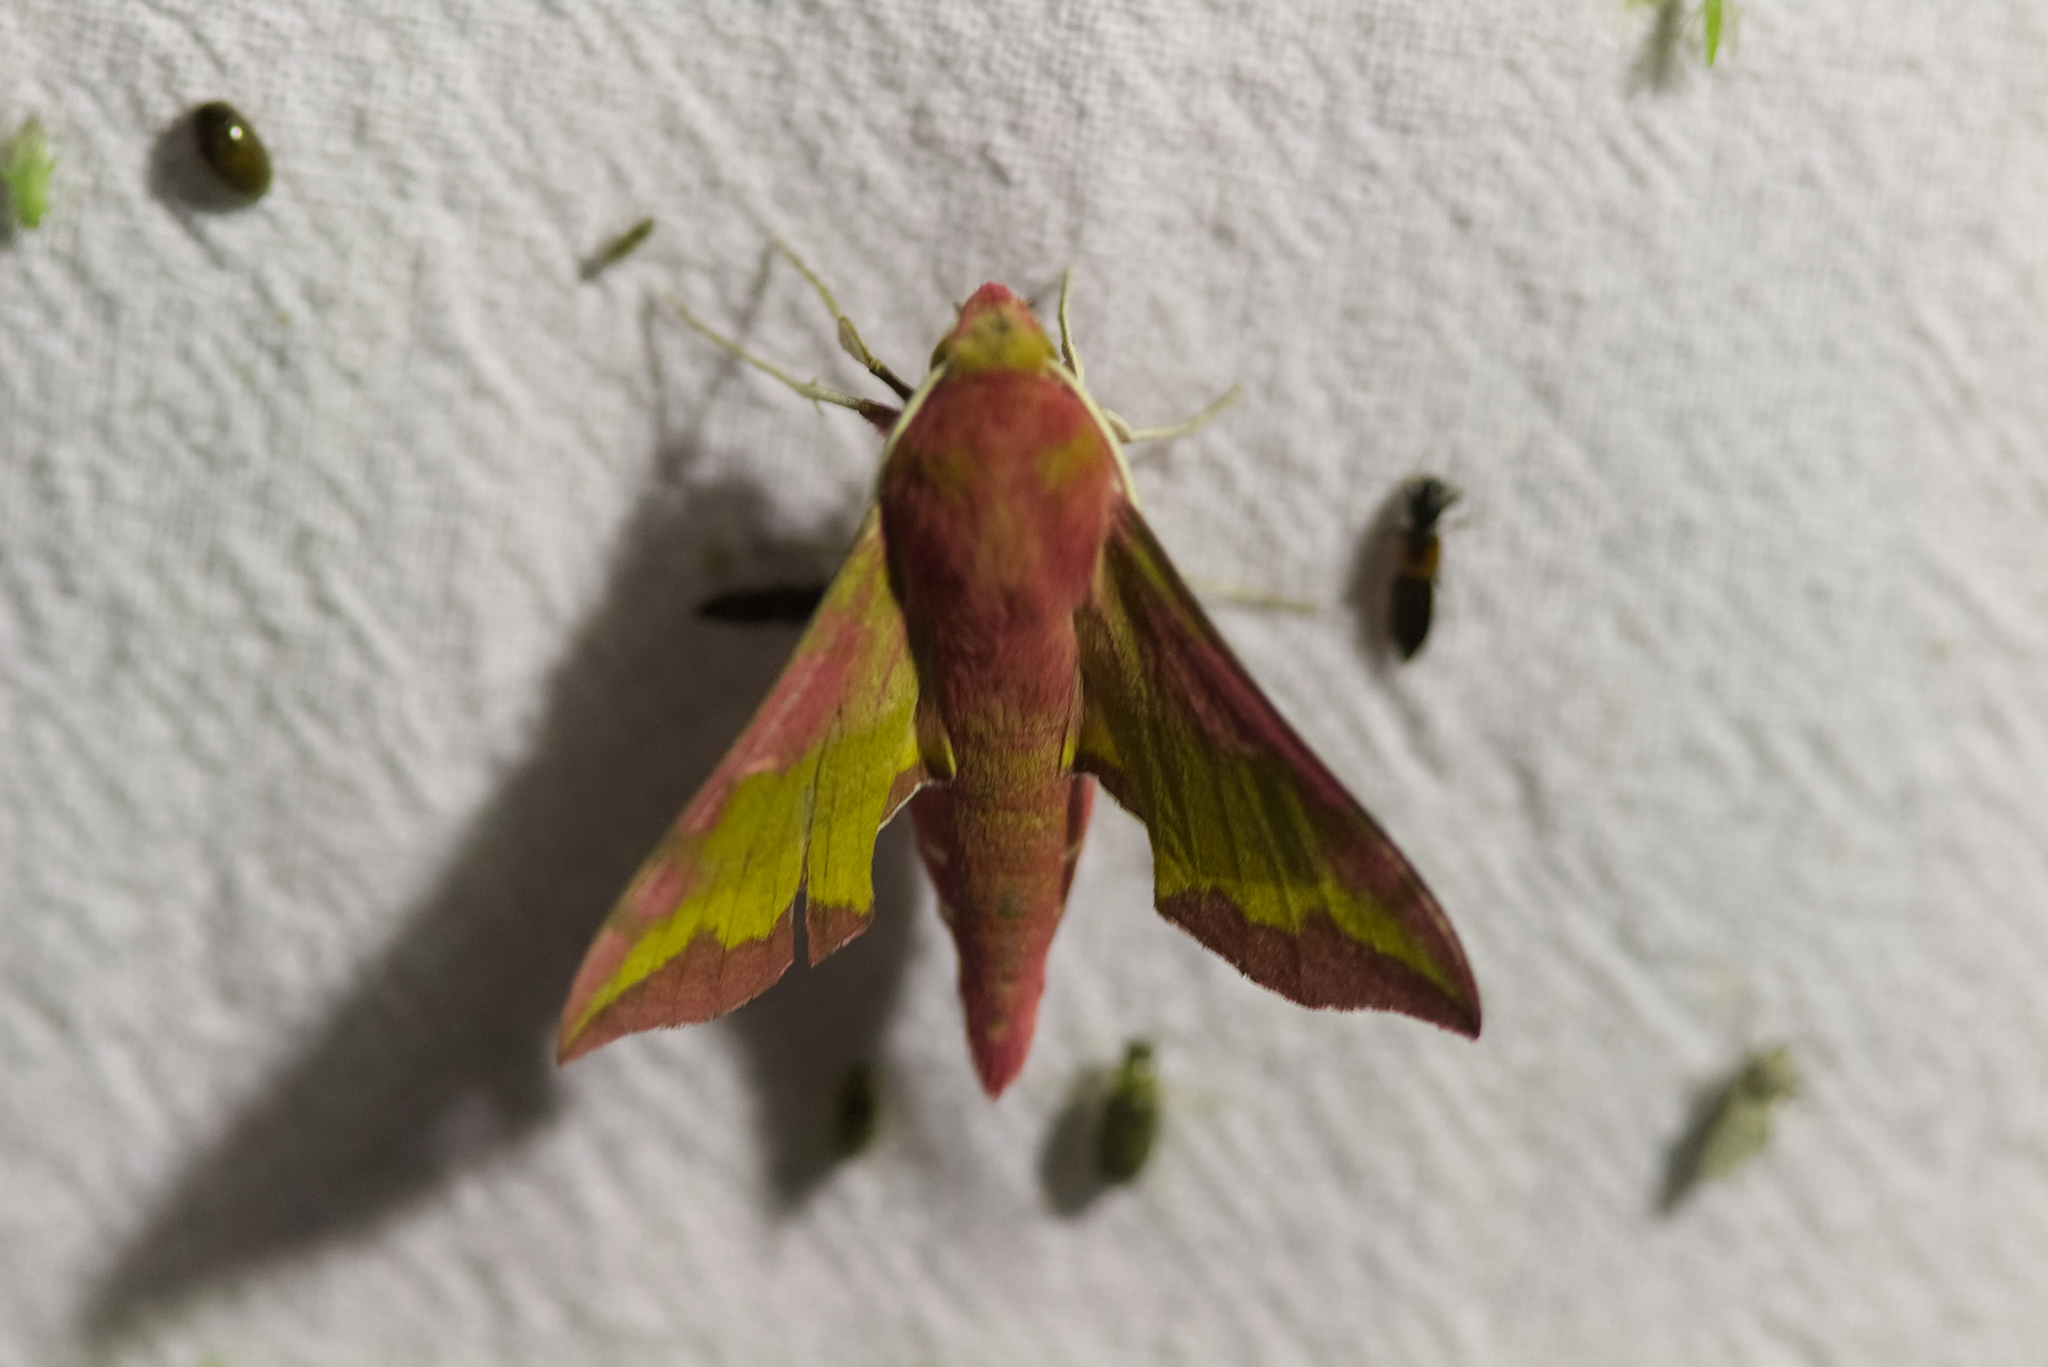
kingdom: Animalia
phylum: Arthropoda
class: Insecta
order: Lepidoptera
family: Sphingidae
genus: Deilephila
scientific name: Deilephila porcellus
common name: Small elephant hawk-moth
